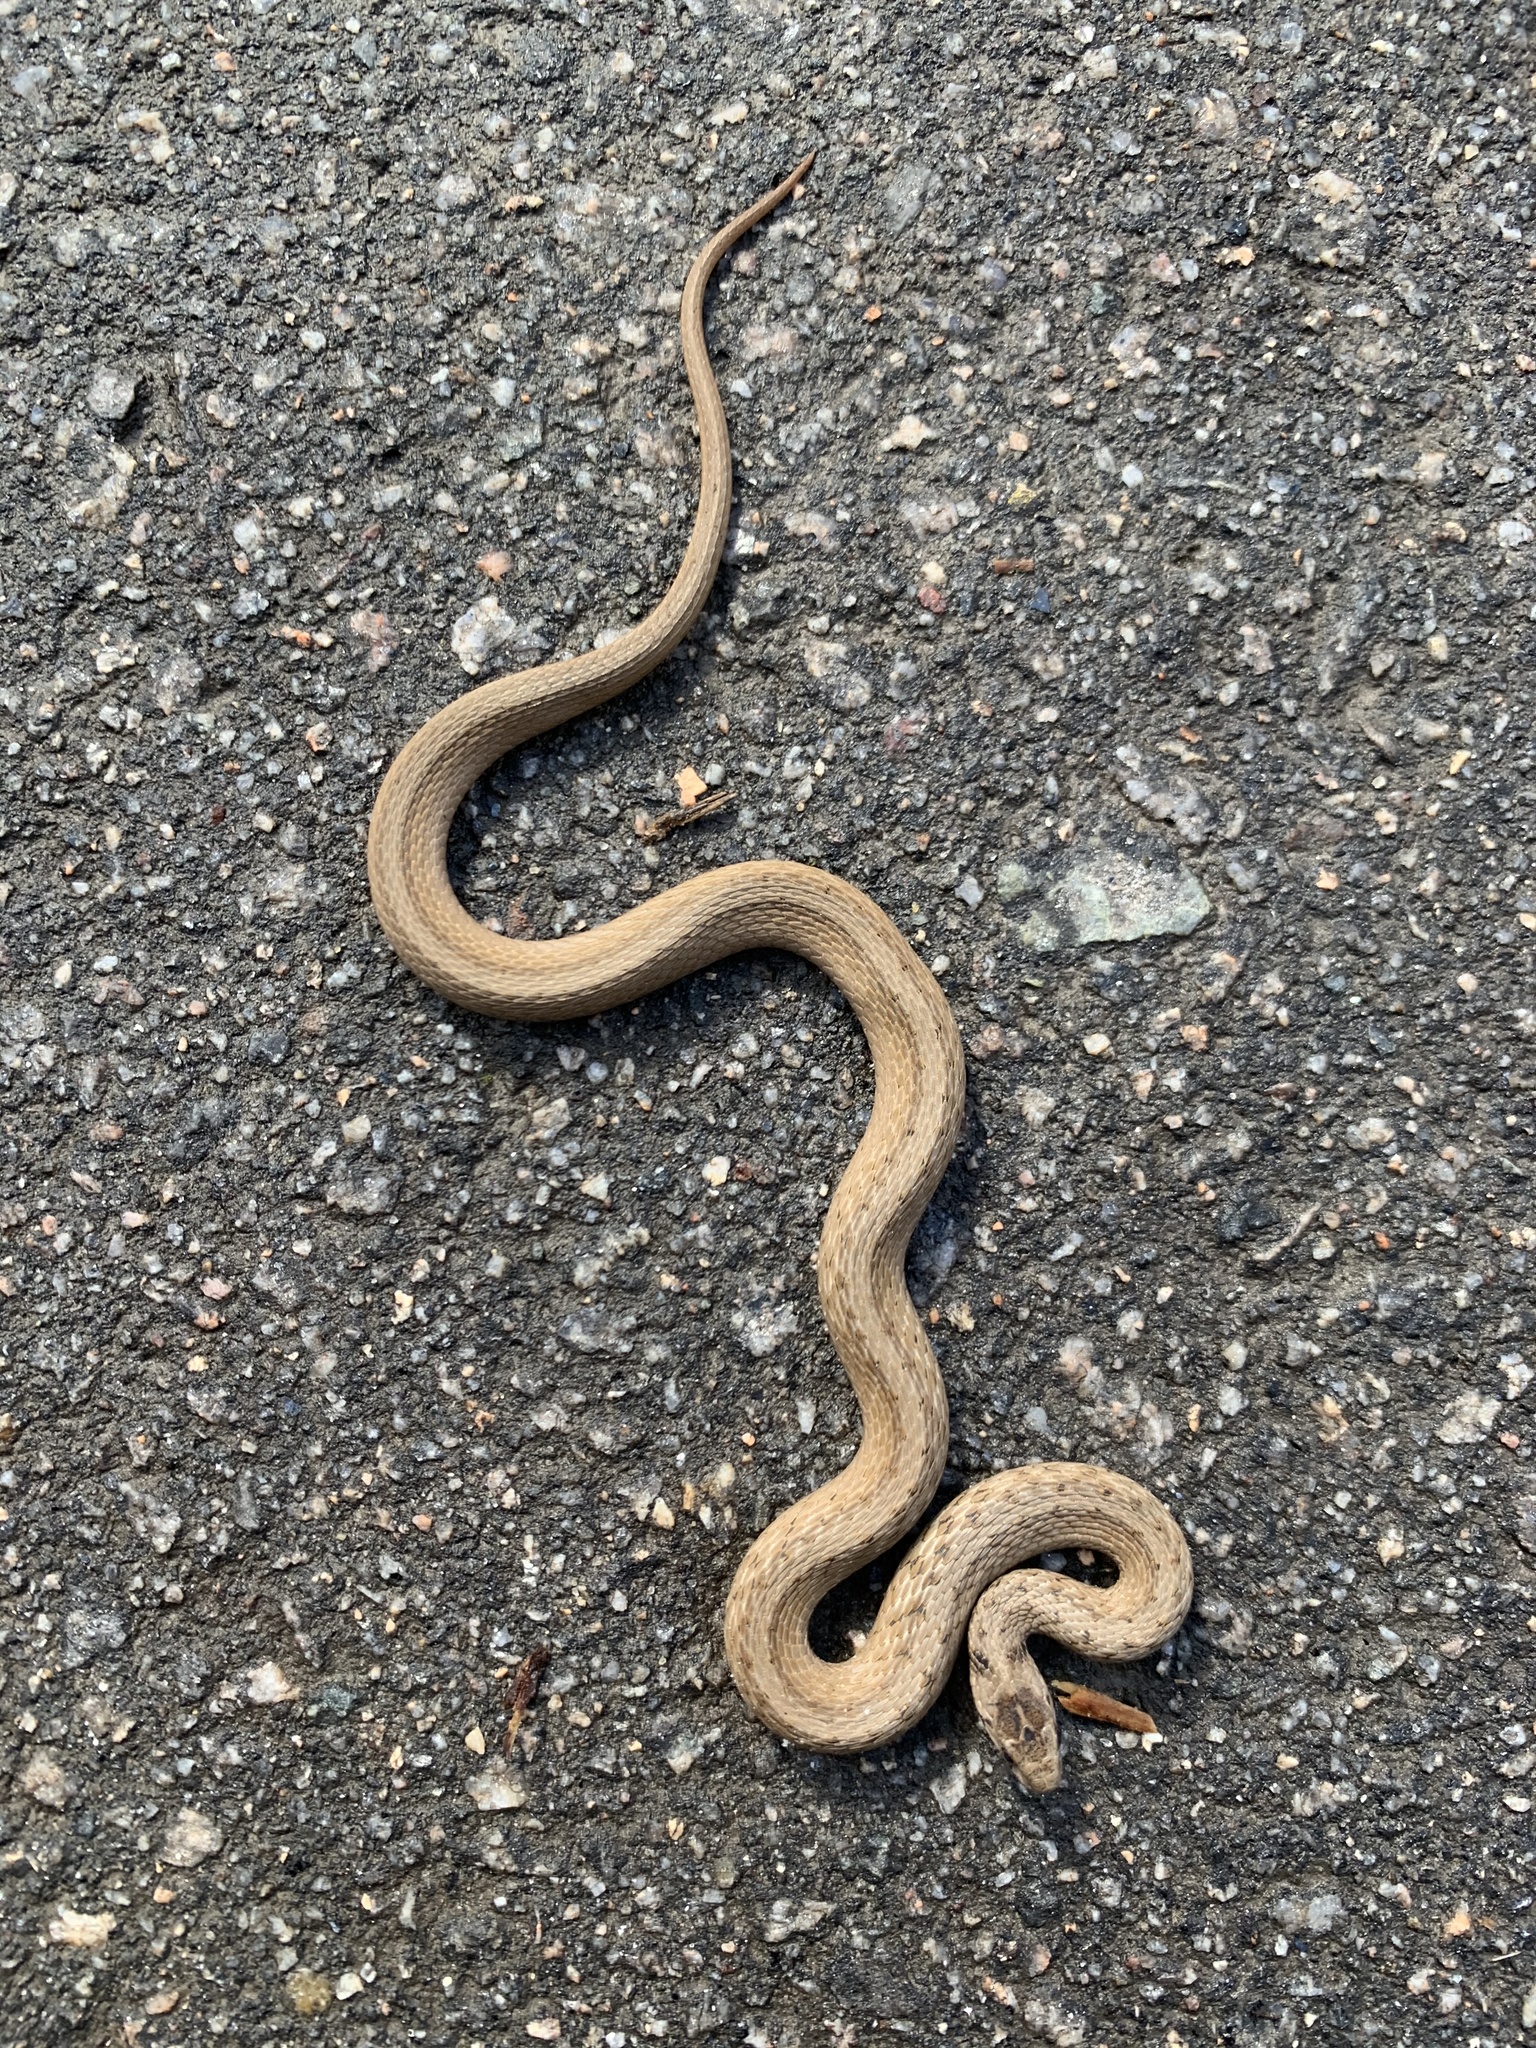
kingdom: Animalia
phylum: Chordata
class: Squamata
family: Colubridae
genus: Storeria
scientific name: Storeria dekayi
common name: (dekay’s) brown snake
